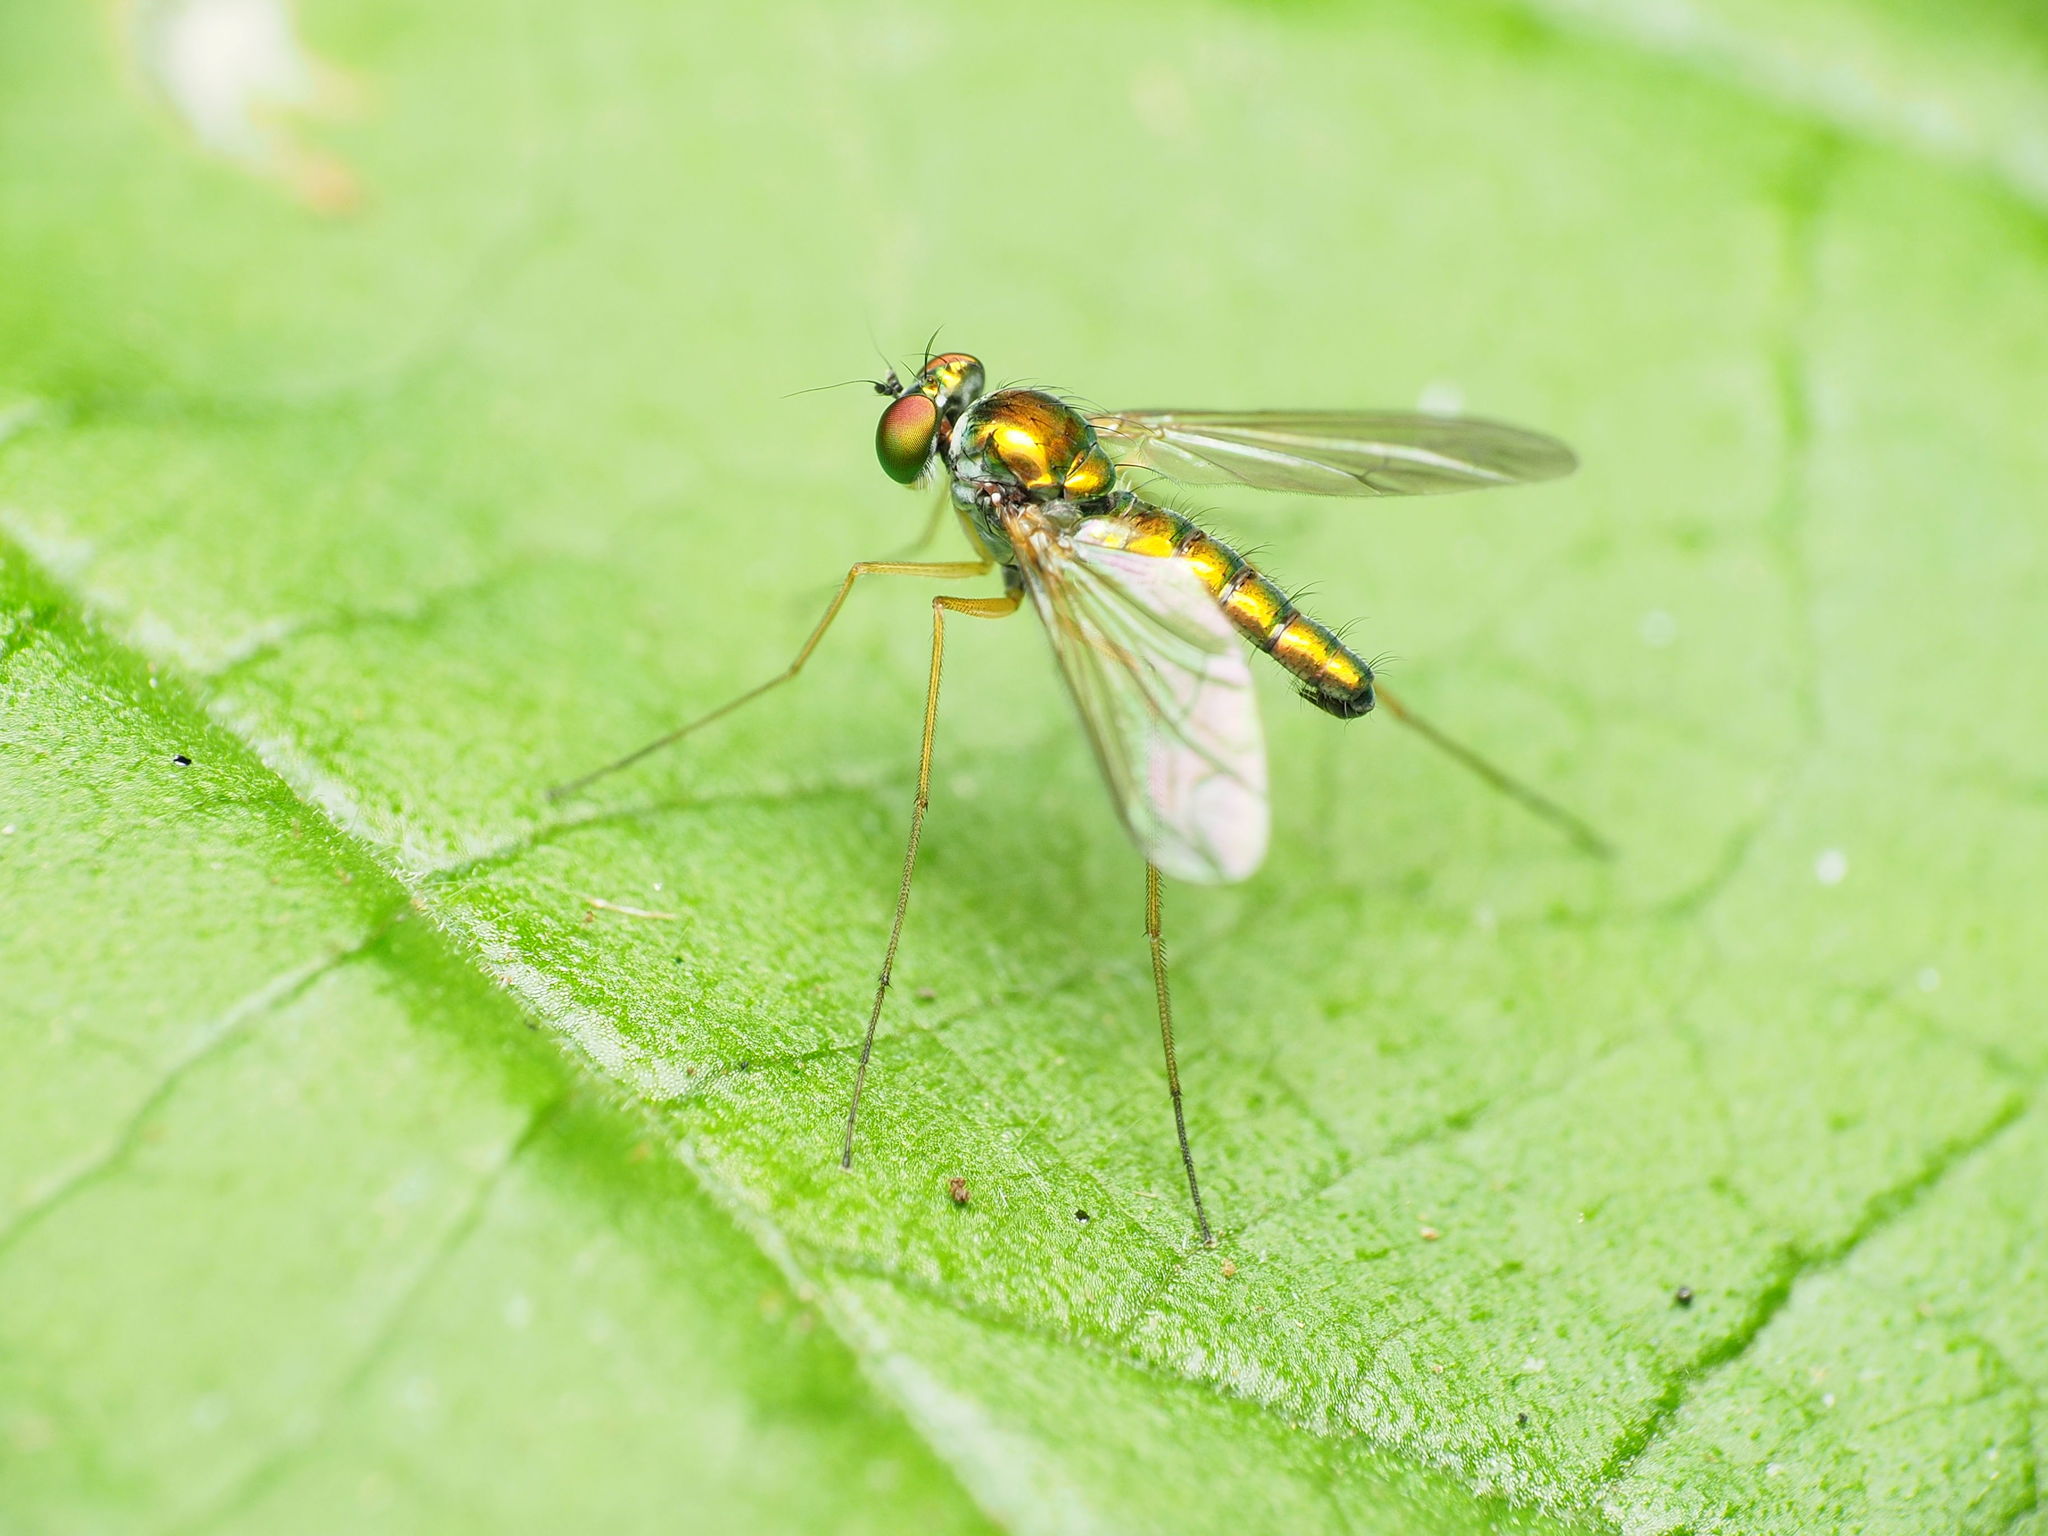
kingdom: Animalia
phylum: Arthropoda
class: Insecta
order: Diptera
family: Dolichopodidae
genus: Amblypsilopus
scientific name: Amblypsilopus scintillans
